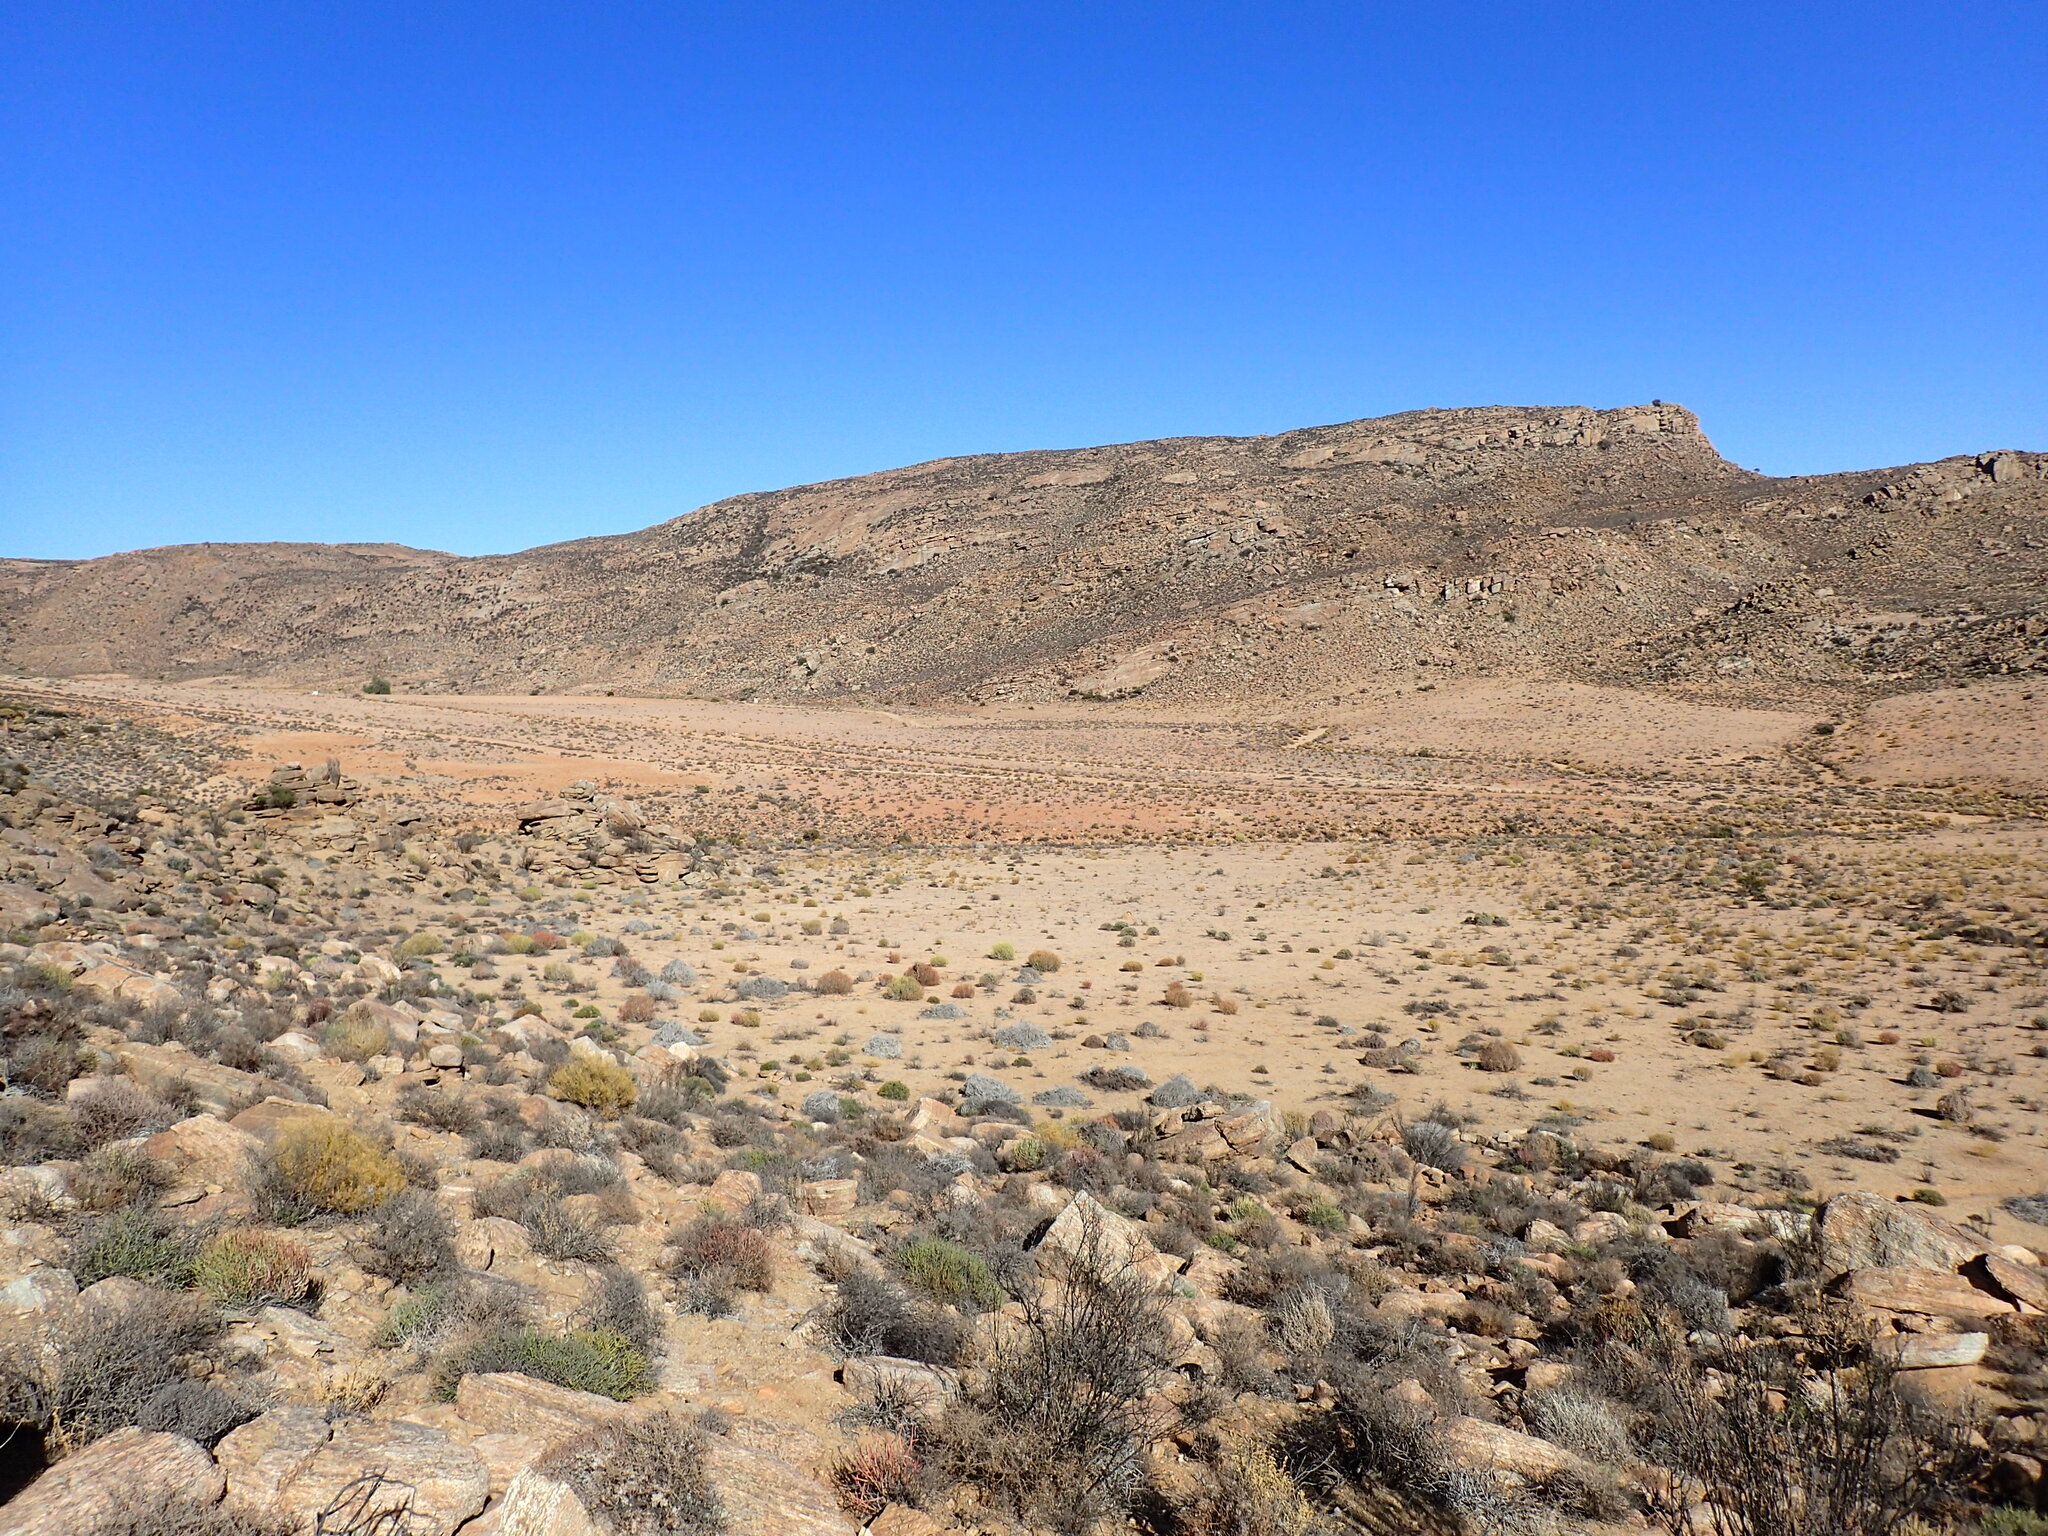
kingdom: Plantae
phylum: Tracheophyta
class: Magnoliopsida
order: Caryophyllales
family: Aizoaceae
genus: Aizoon
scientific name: Aizoon africanum
